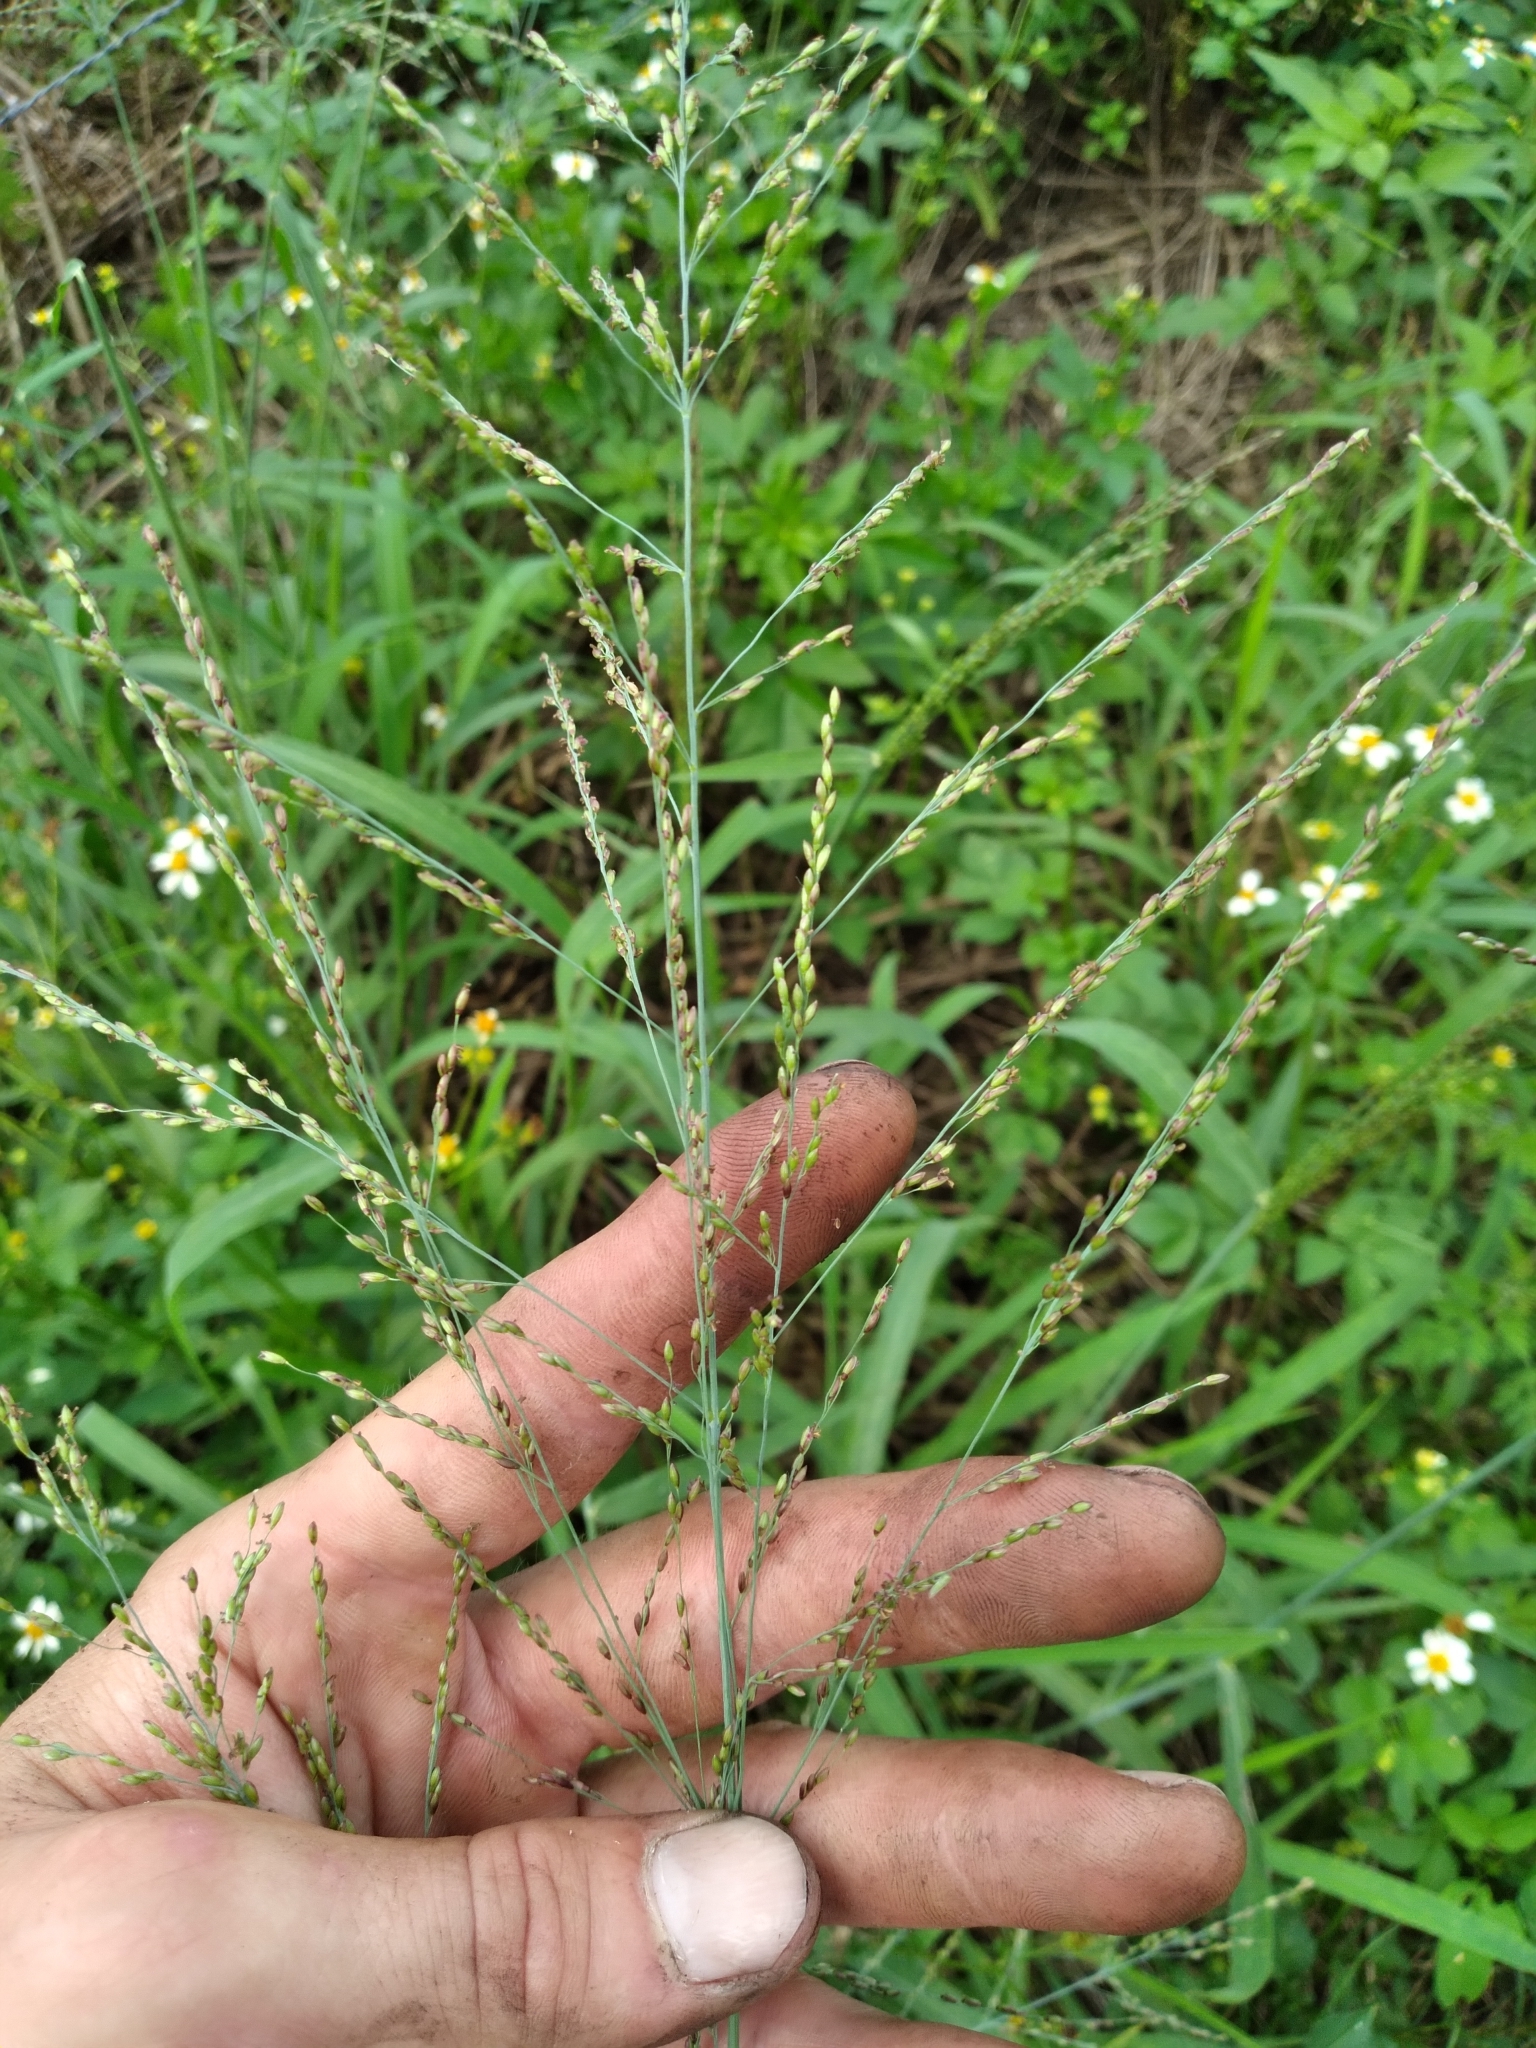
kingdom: Plantae
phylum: Tracheophyta
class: Liliopsida
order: Poales
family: Poaceae
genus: Panicum
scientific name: Panicum repens
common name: Torpedo grass
